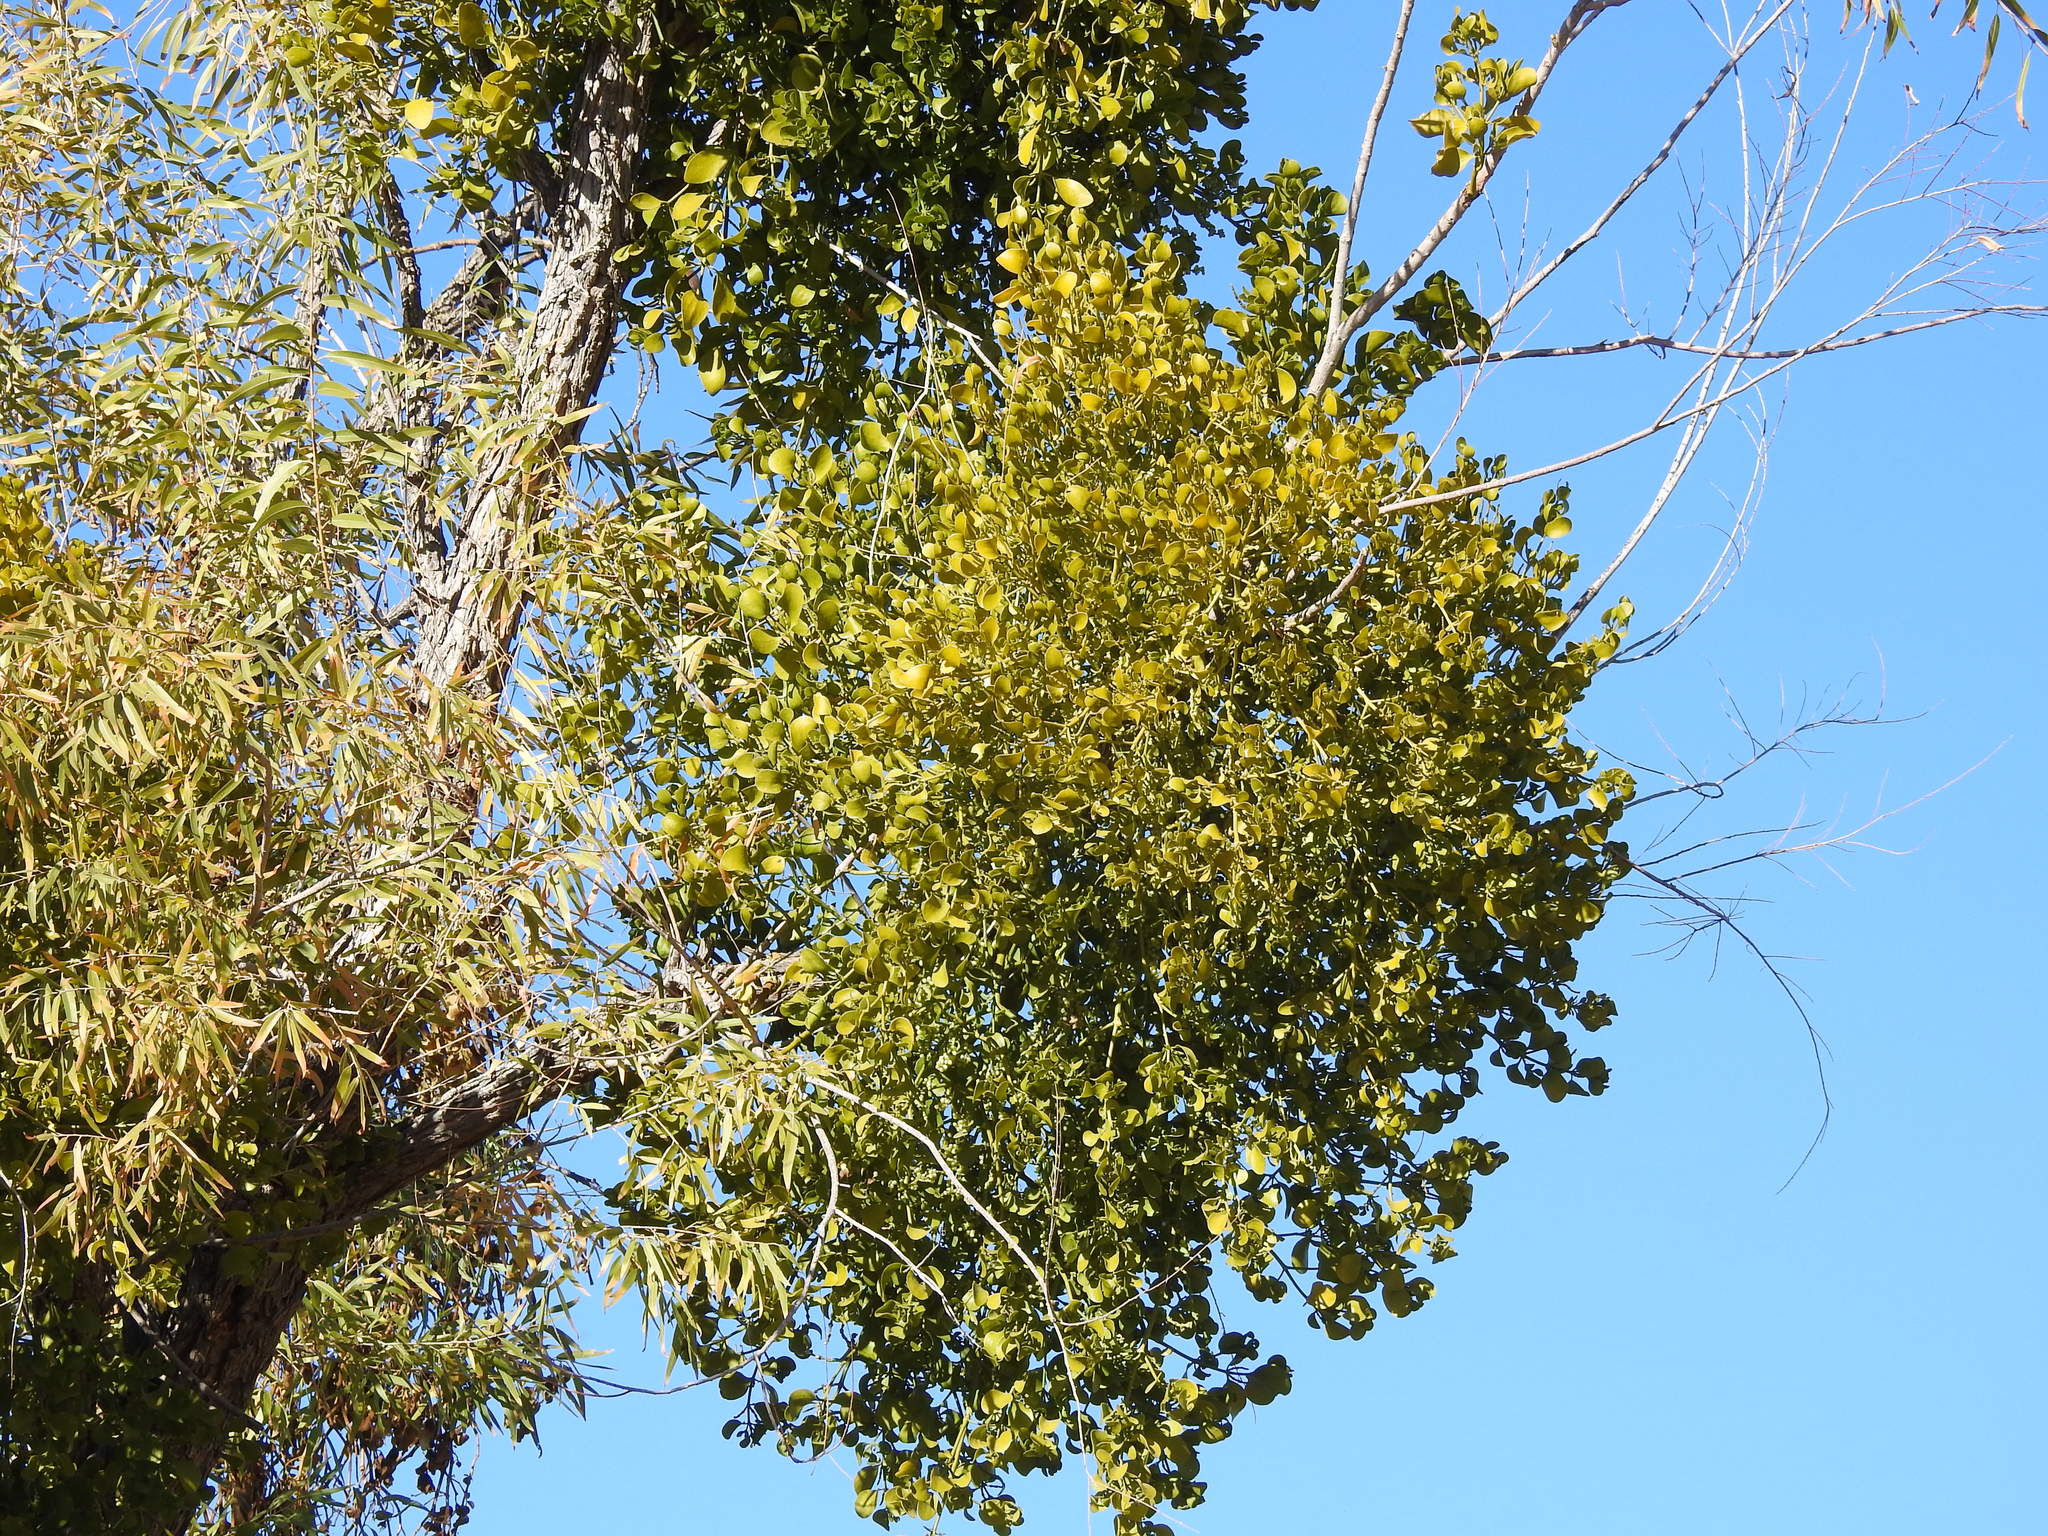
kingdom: Plantae
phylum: Tracheophyta
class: Magnoliopsida
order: Santalales
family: Viscaceae
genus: Phoradendron
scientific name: Phoradendron
